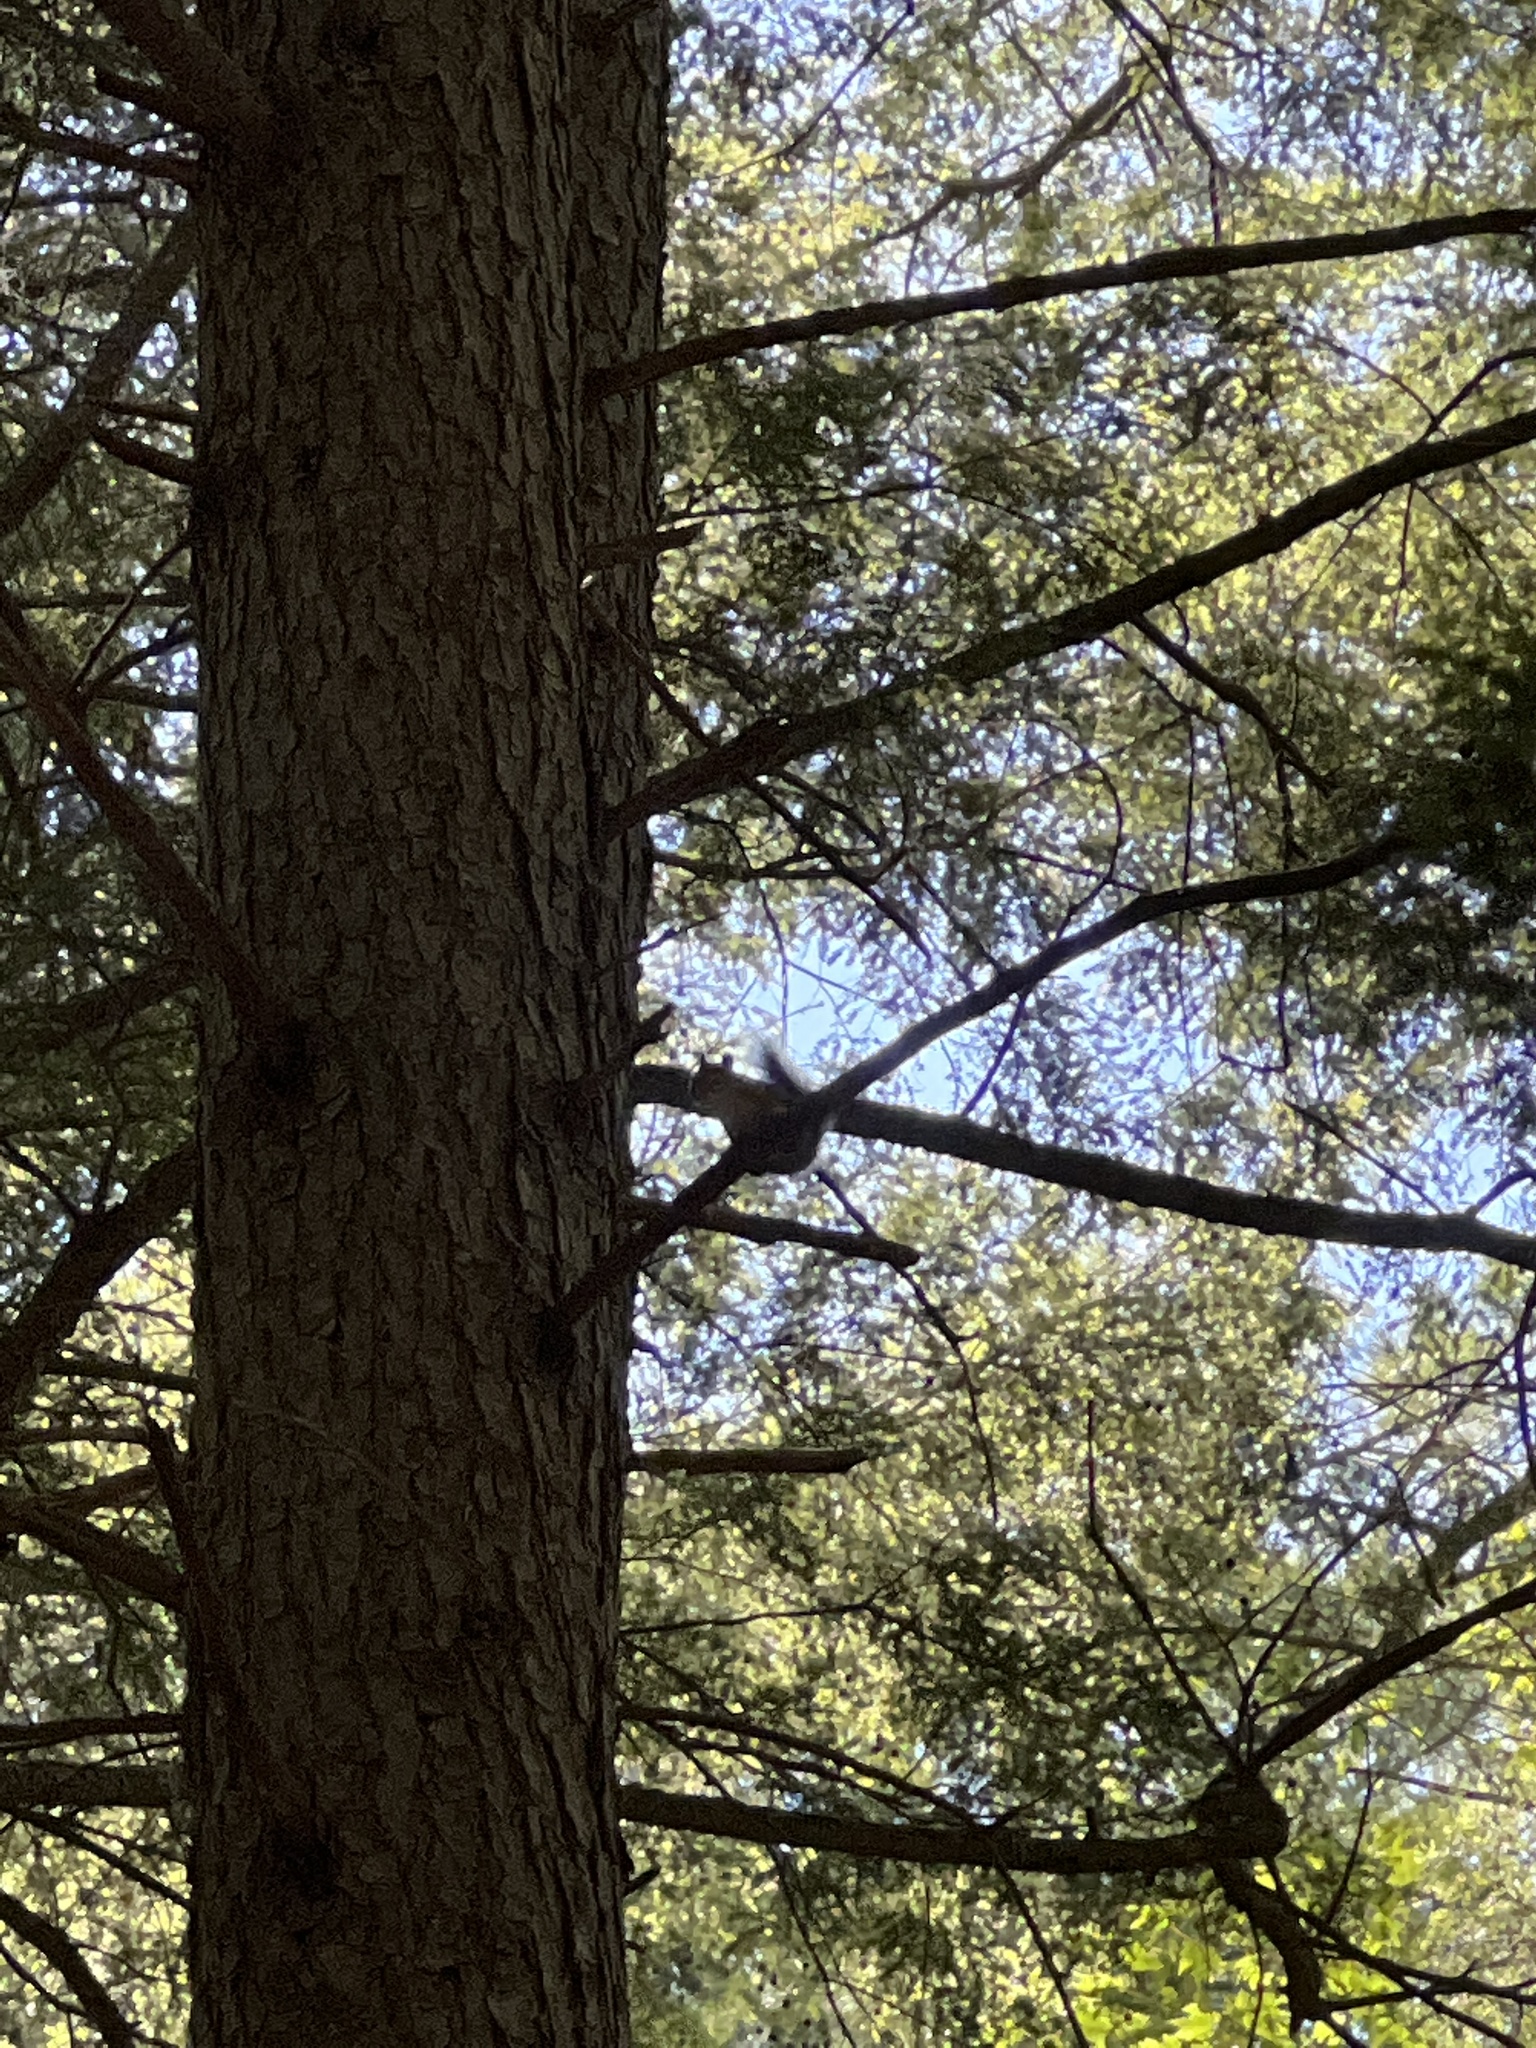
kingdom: Animalia
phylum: Chordata
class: Mammalia
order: Rodentia
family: Sciuridae
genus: Tamiasciurus
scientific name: Tamiasciurus hudsonicus
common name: Red squirrel
